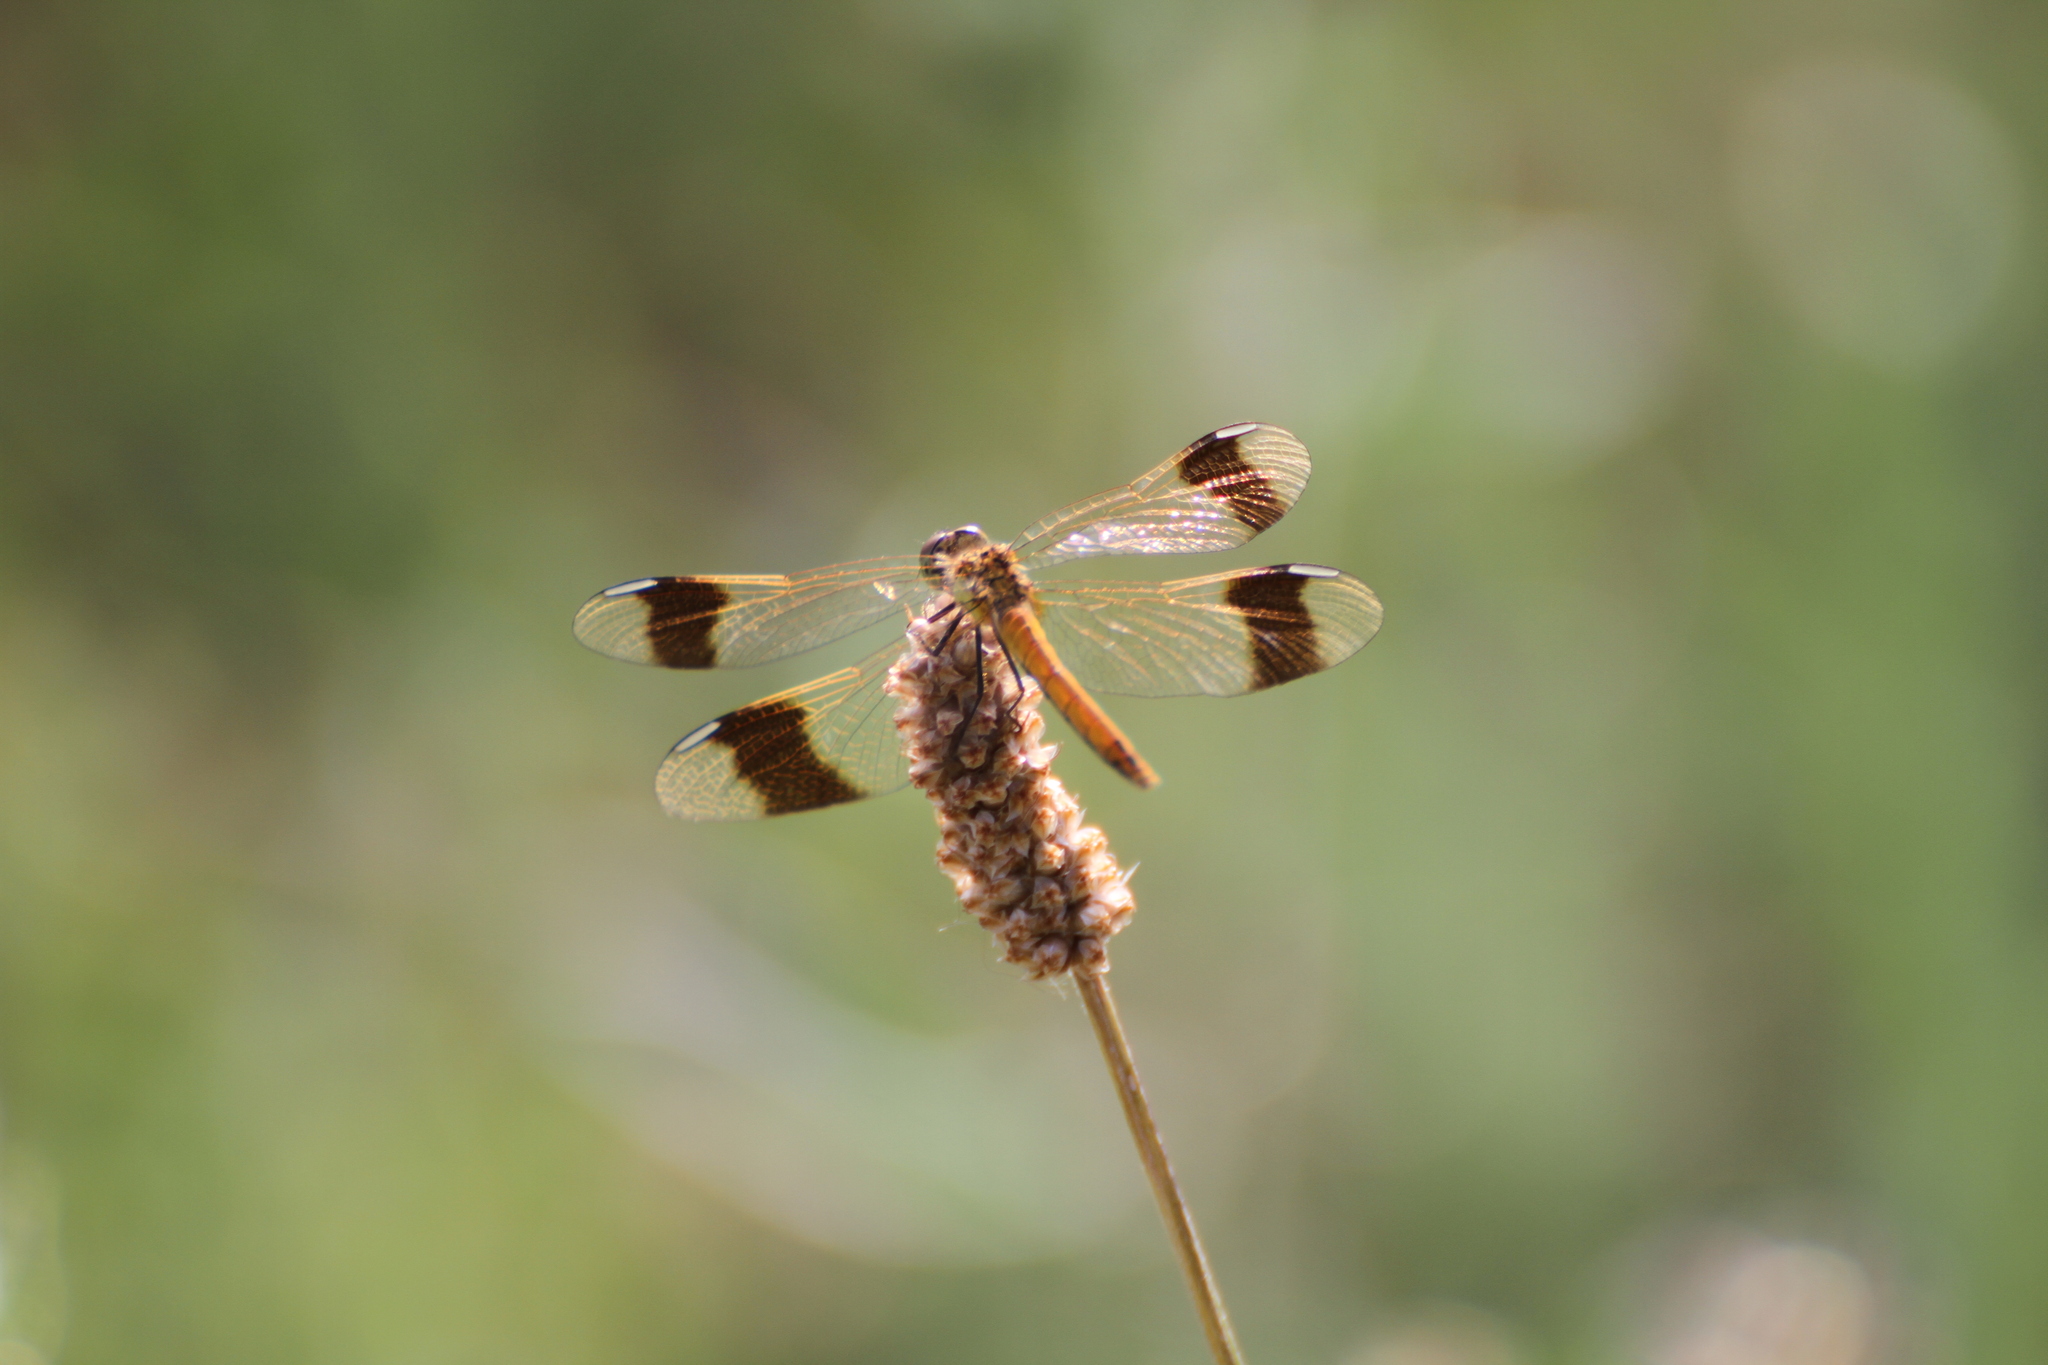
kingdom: Animalia
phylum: Arthropoda
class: Insecta
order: Odonata
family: Libellulidae
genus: Sympetrum
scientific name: Sympetrum pedemontanum
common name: Banded darter
